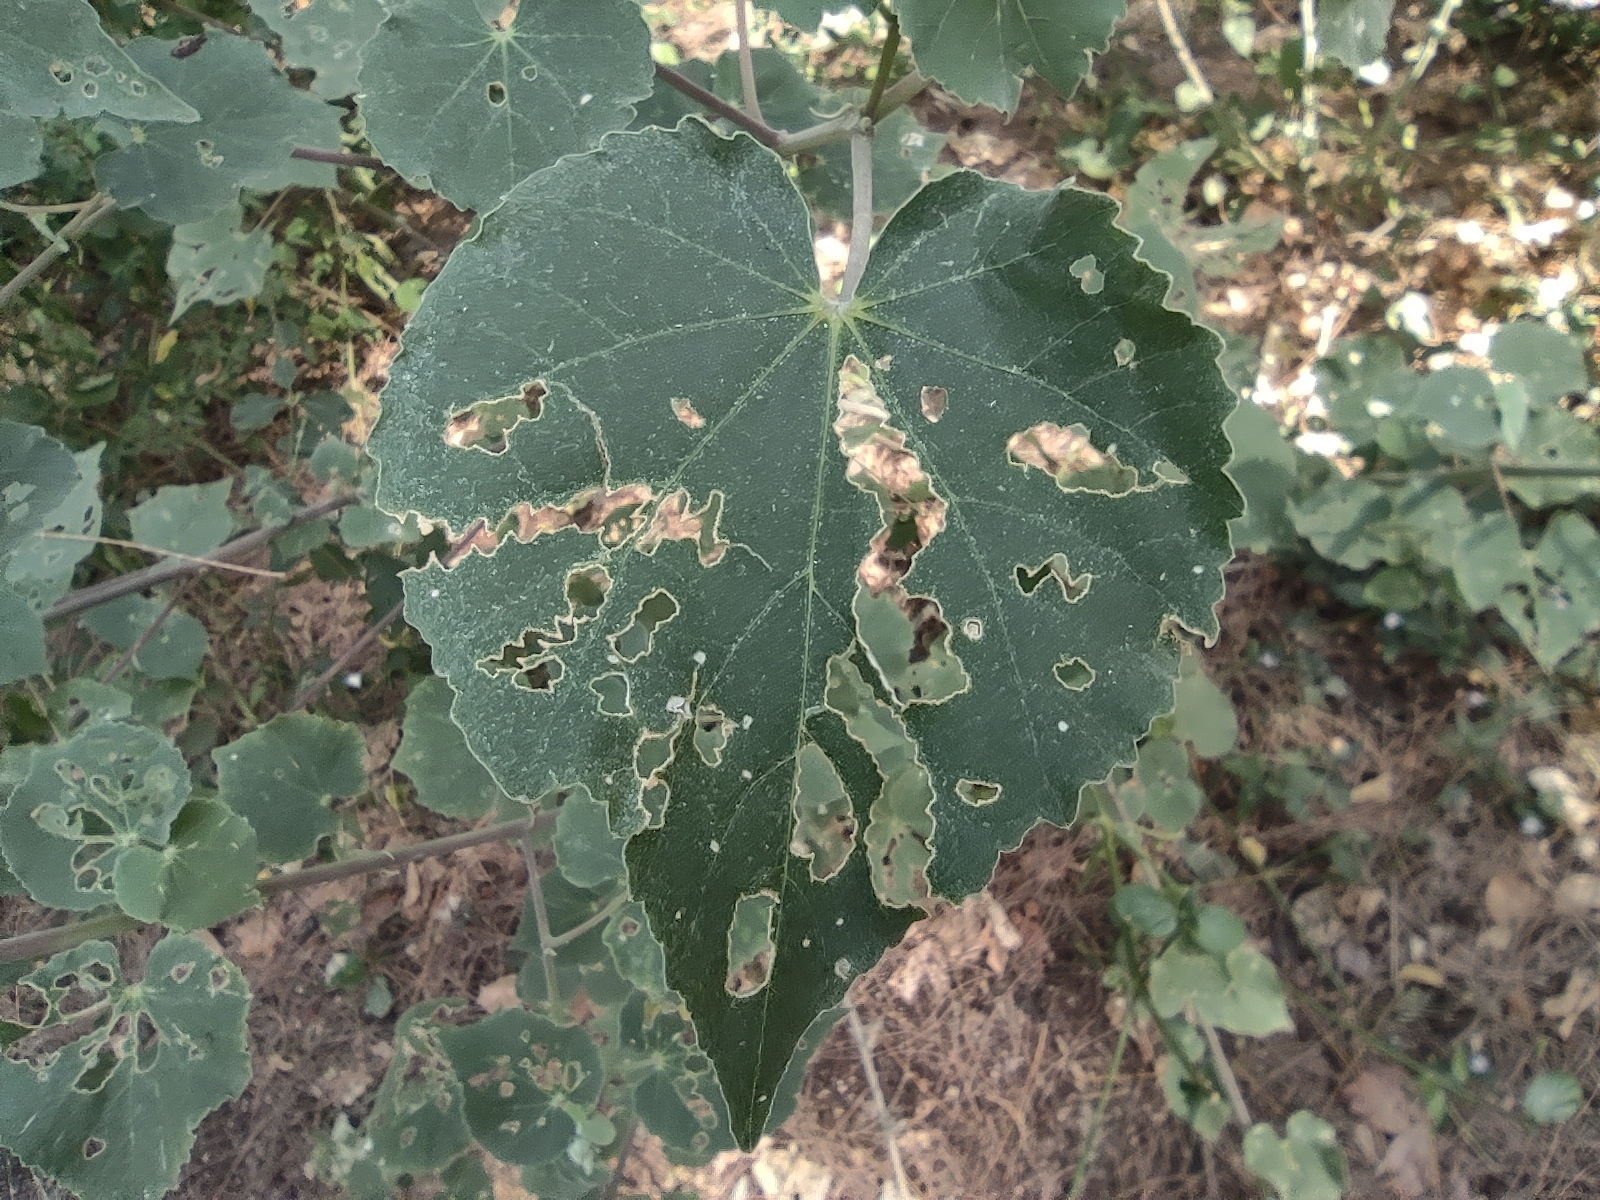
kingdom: Plantae
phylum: Tracheophyta
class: Magnoliopsida
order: Malvales
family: Malvaceae
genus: Abutilon
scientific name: Abutilon indicum
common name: Indian abutilon
